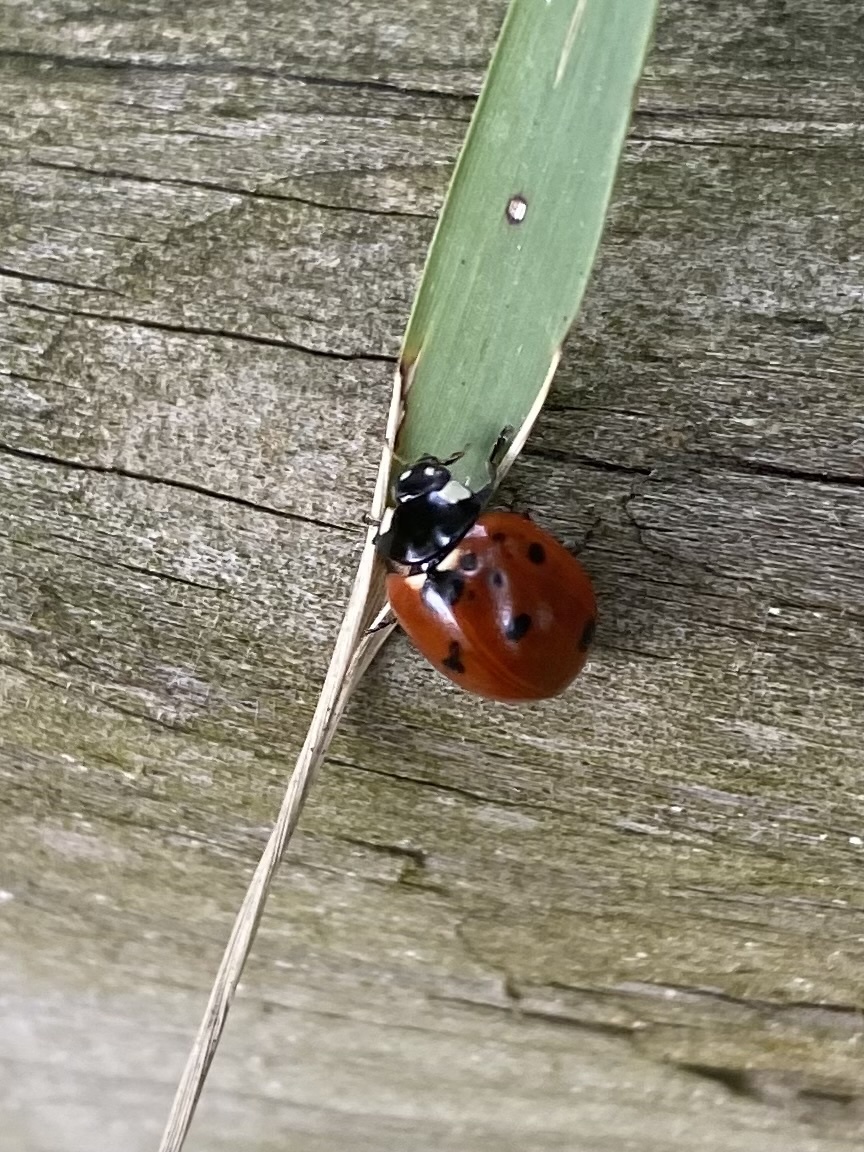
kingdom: Animalia
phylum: Arthropoda
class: Insecta
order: Coleoptera
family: Coccinellidae
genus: Coccinella
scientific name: Coccinella septempunctata
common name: Sevenspotted lady beetle
